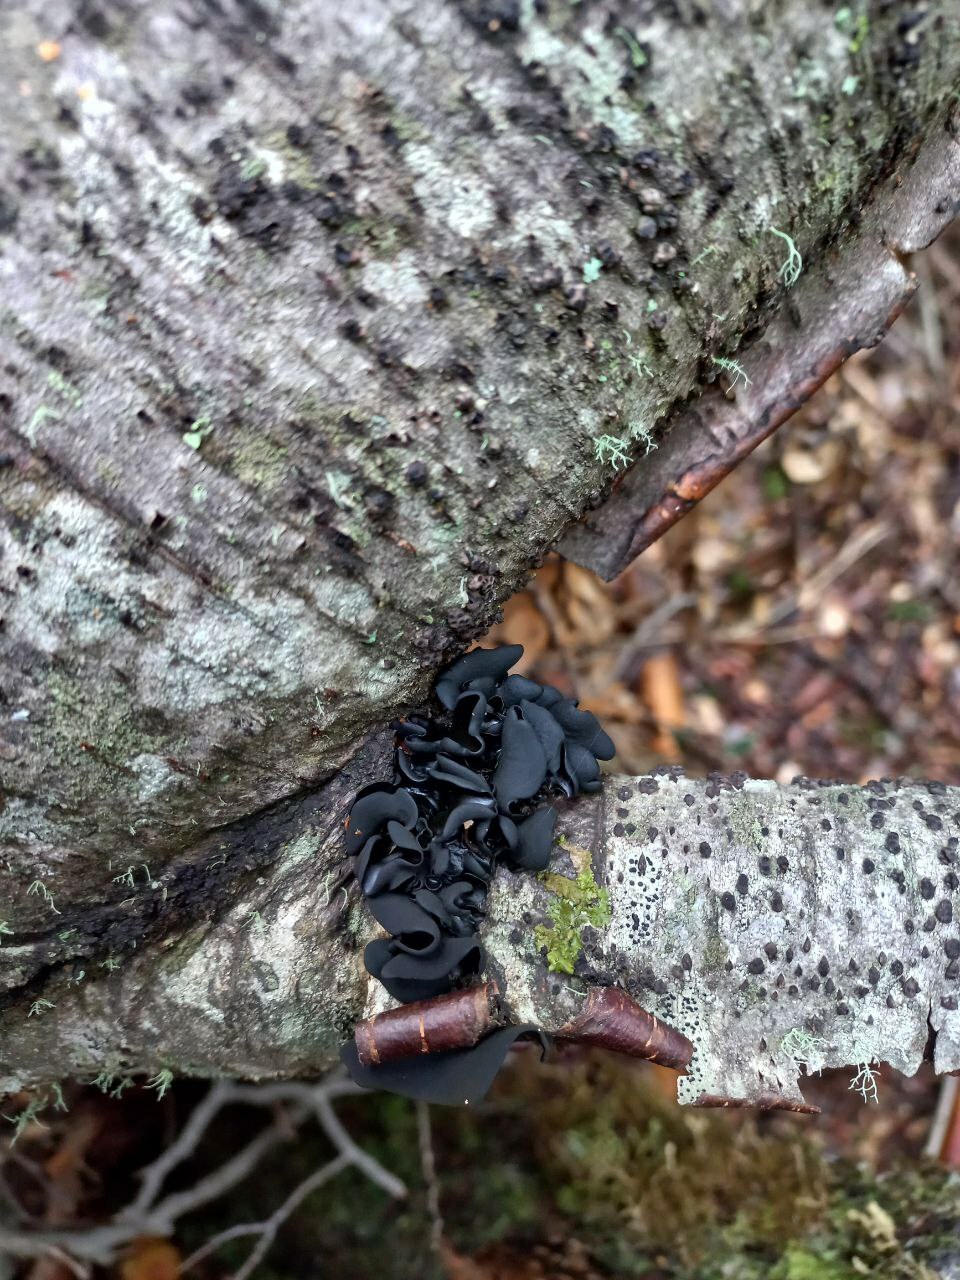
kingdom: Fungi
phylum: Ascomycota
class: Leotiomycetes
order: Helotiales
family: Cordieritidaceae
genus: Ameghiniella
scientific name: Ameghiniella australis
